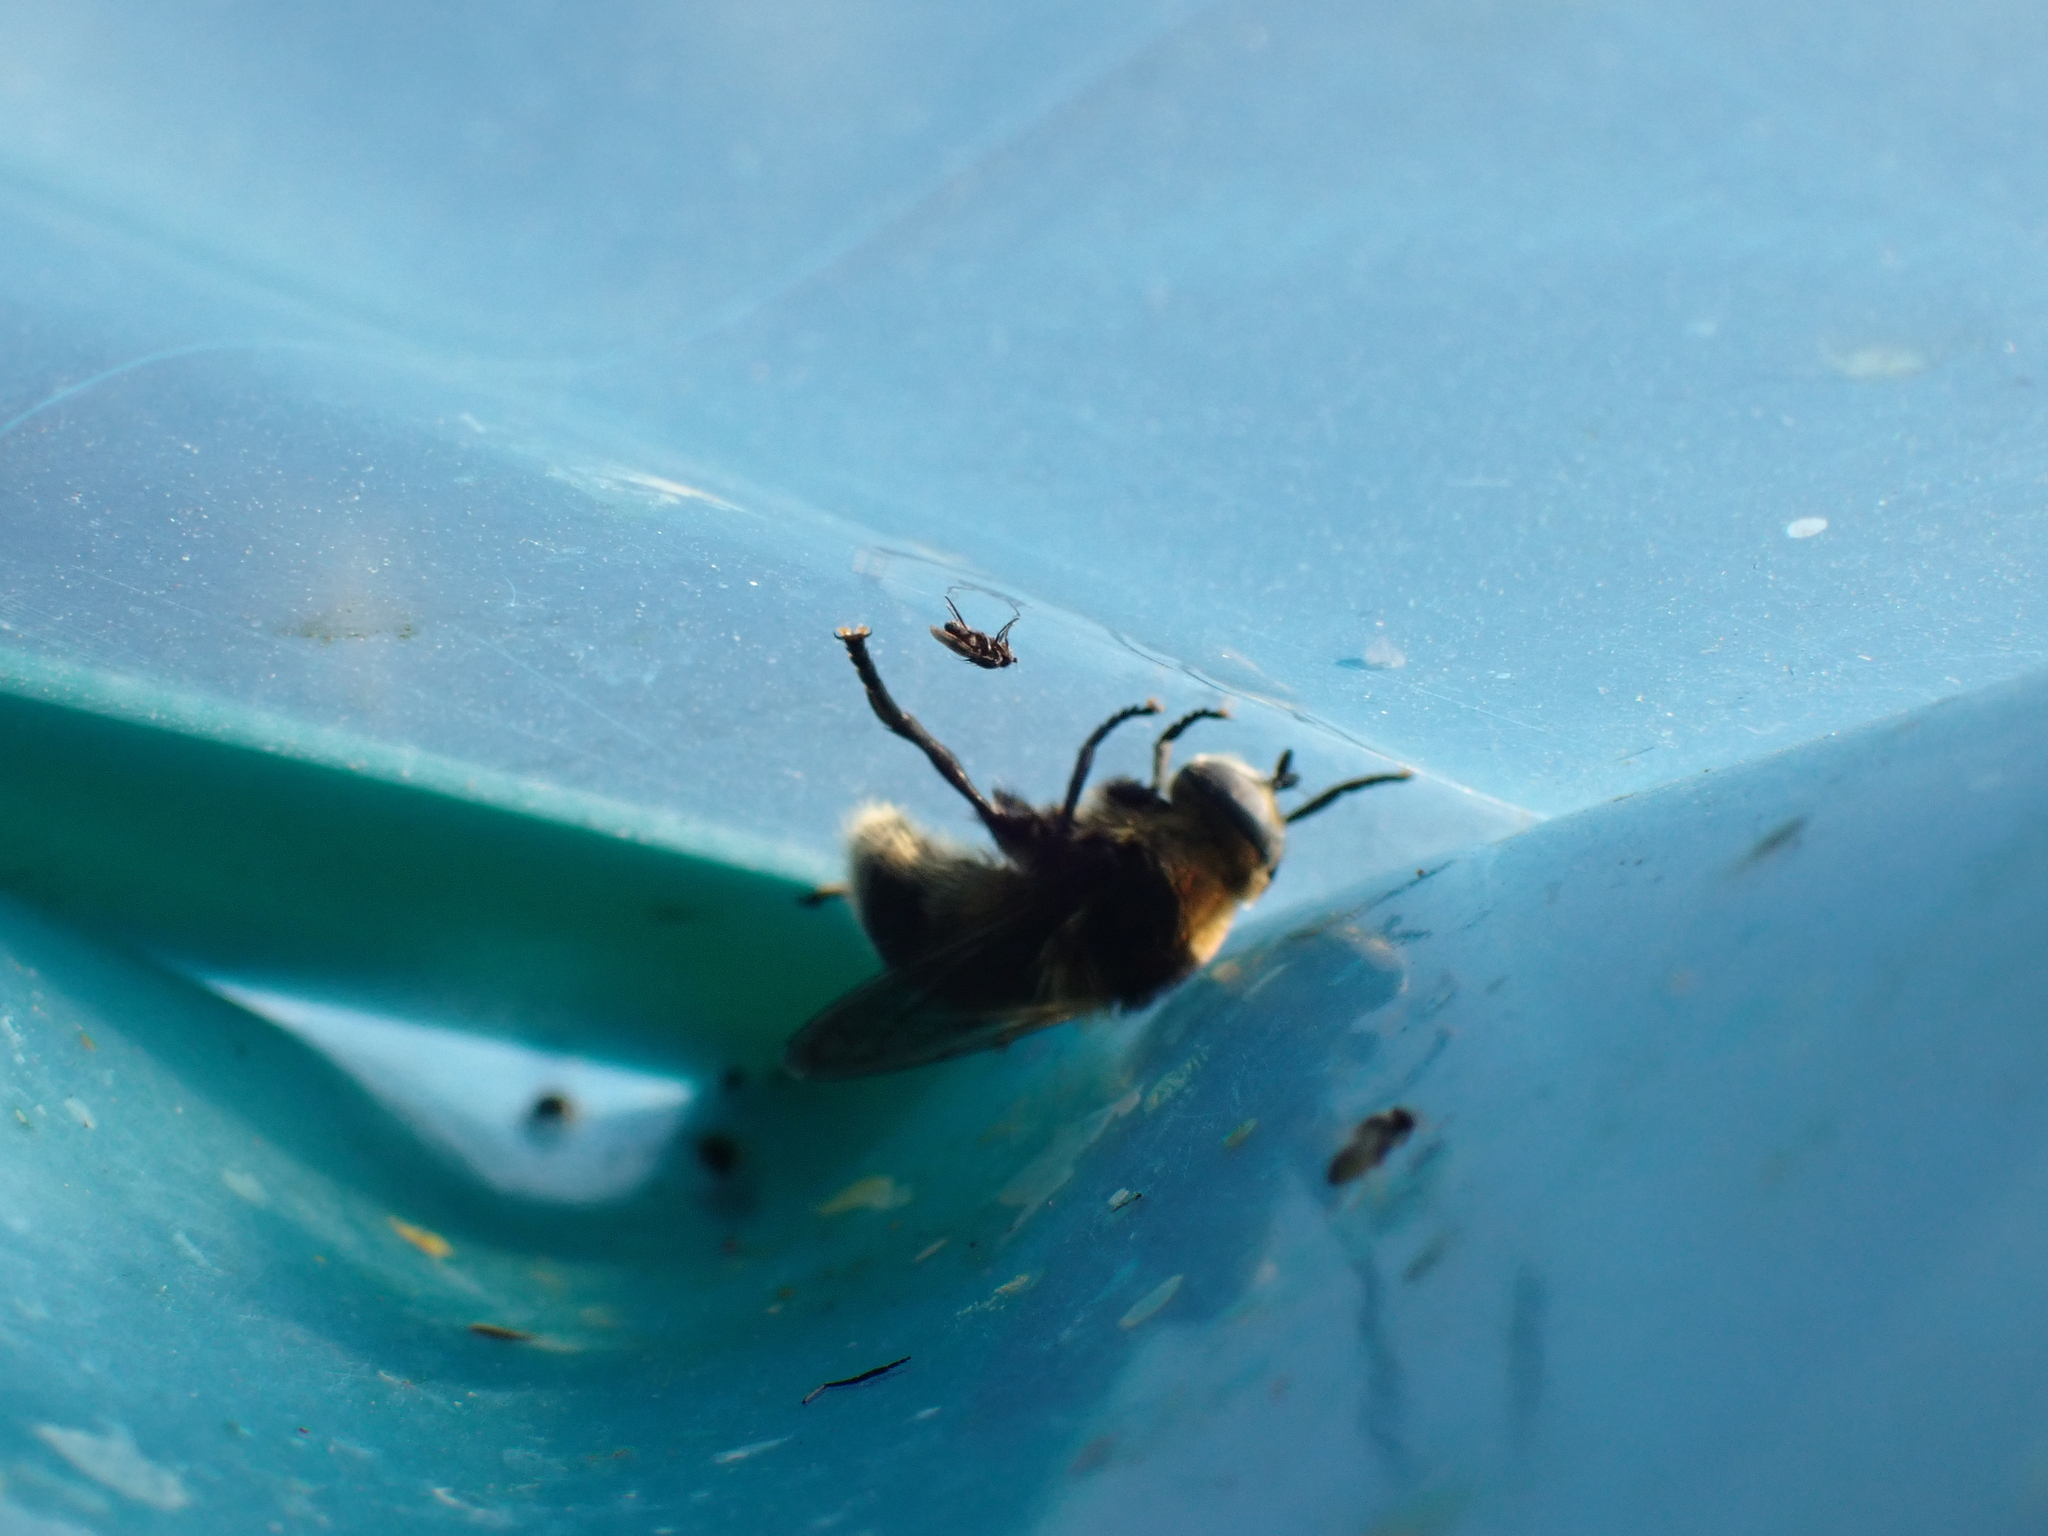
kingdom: Animalia
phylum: Arthropoda
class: Insecta
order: Diptera
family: Syrphidae
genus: Merodon
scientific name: Merodon equestris
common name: Greater bulb-fly
